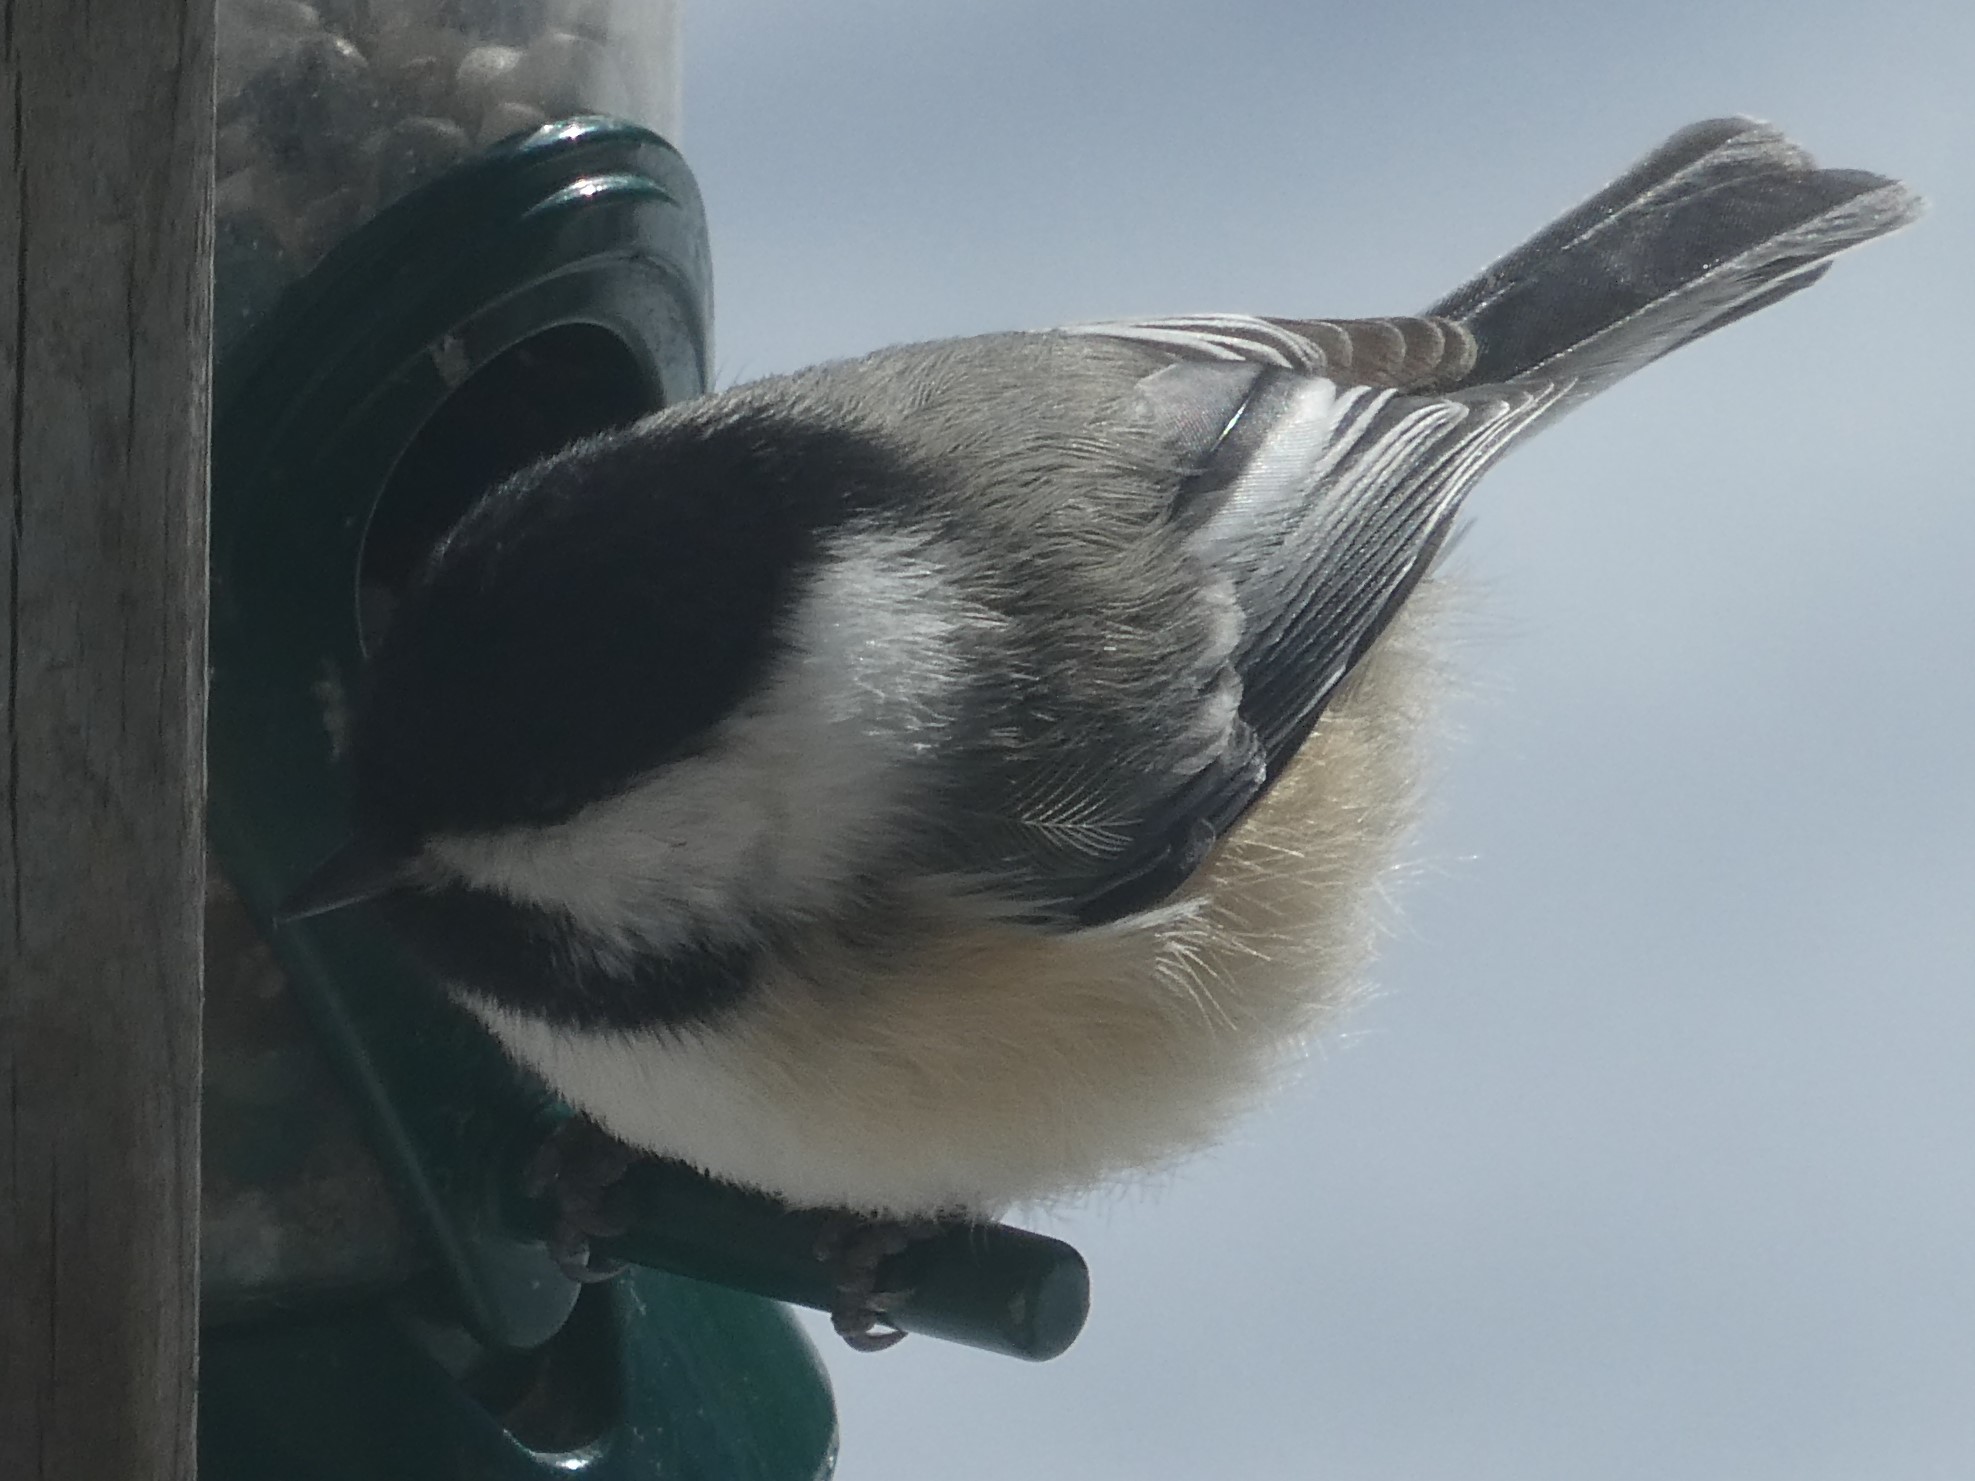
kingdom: Animalia
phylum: Chordata
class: Aves
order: Passeriformes
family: Paridae
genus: Poecile
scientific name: Poecile atricapillus
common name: Black-capped chickadee
